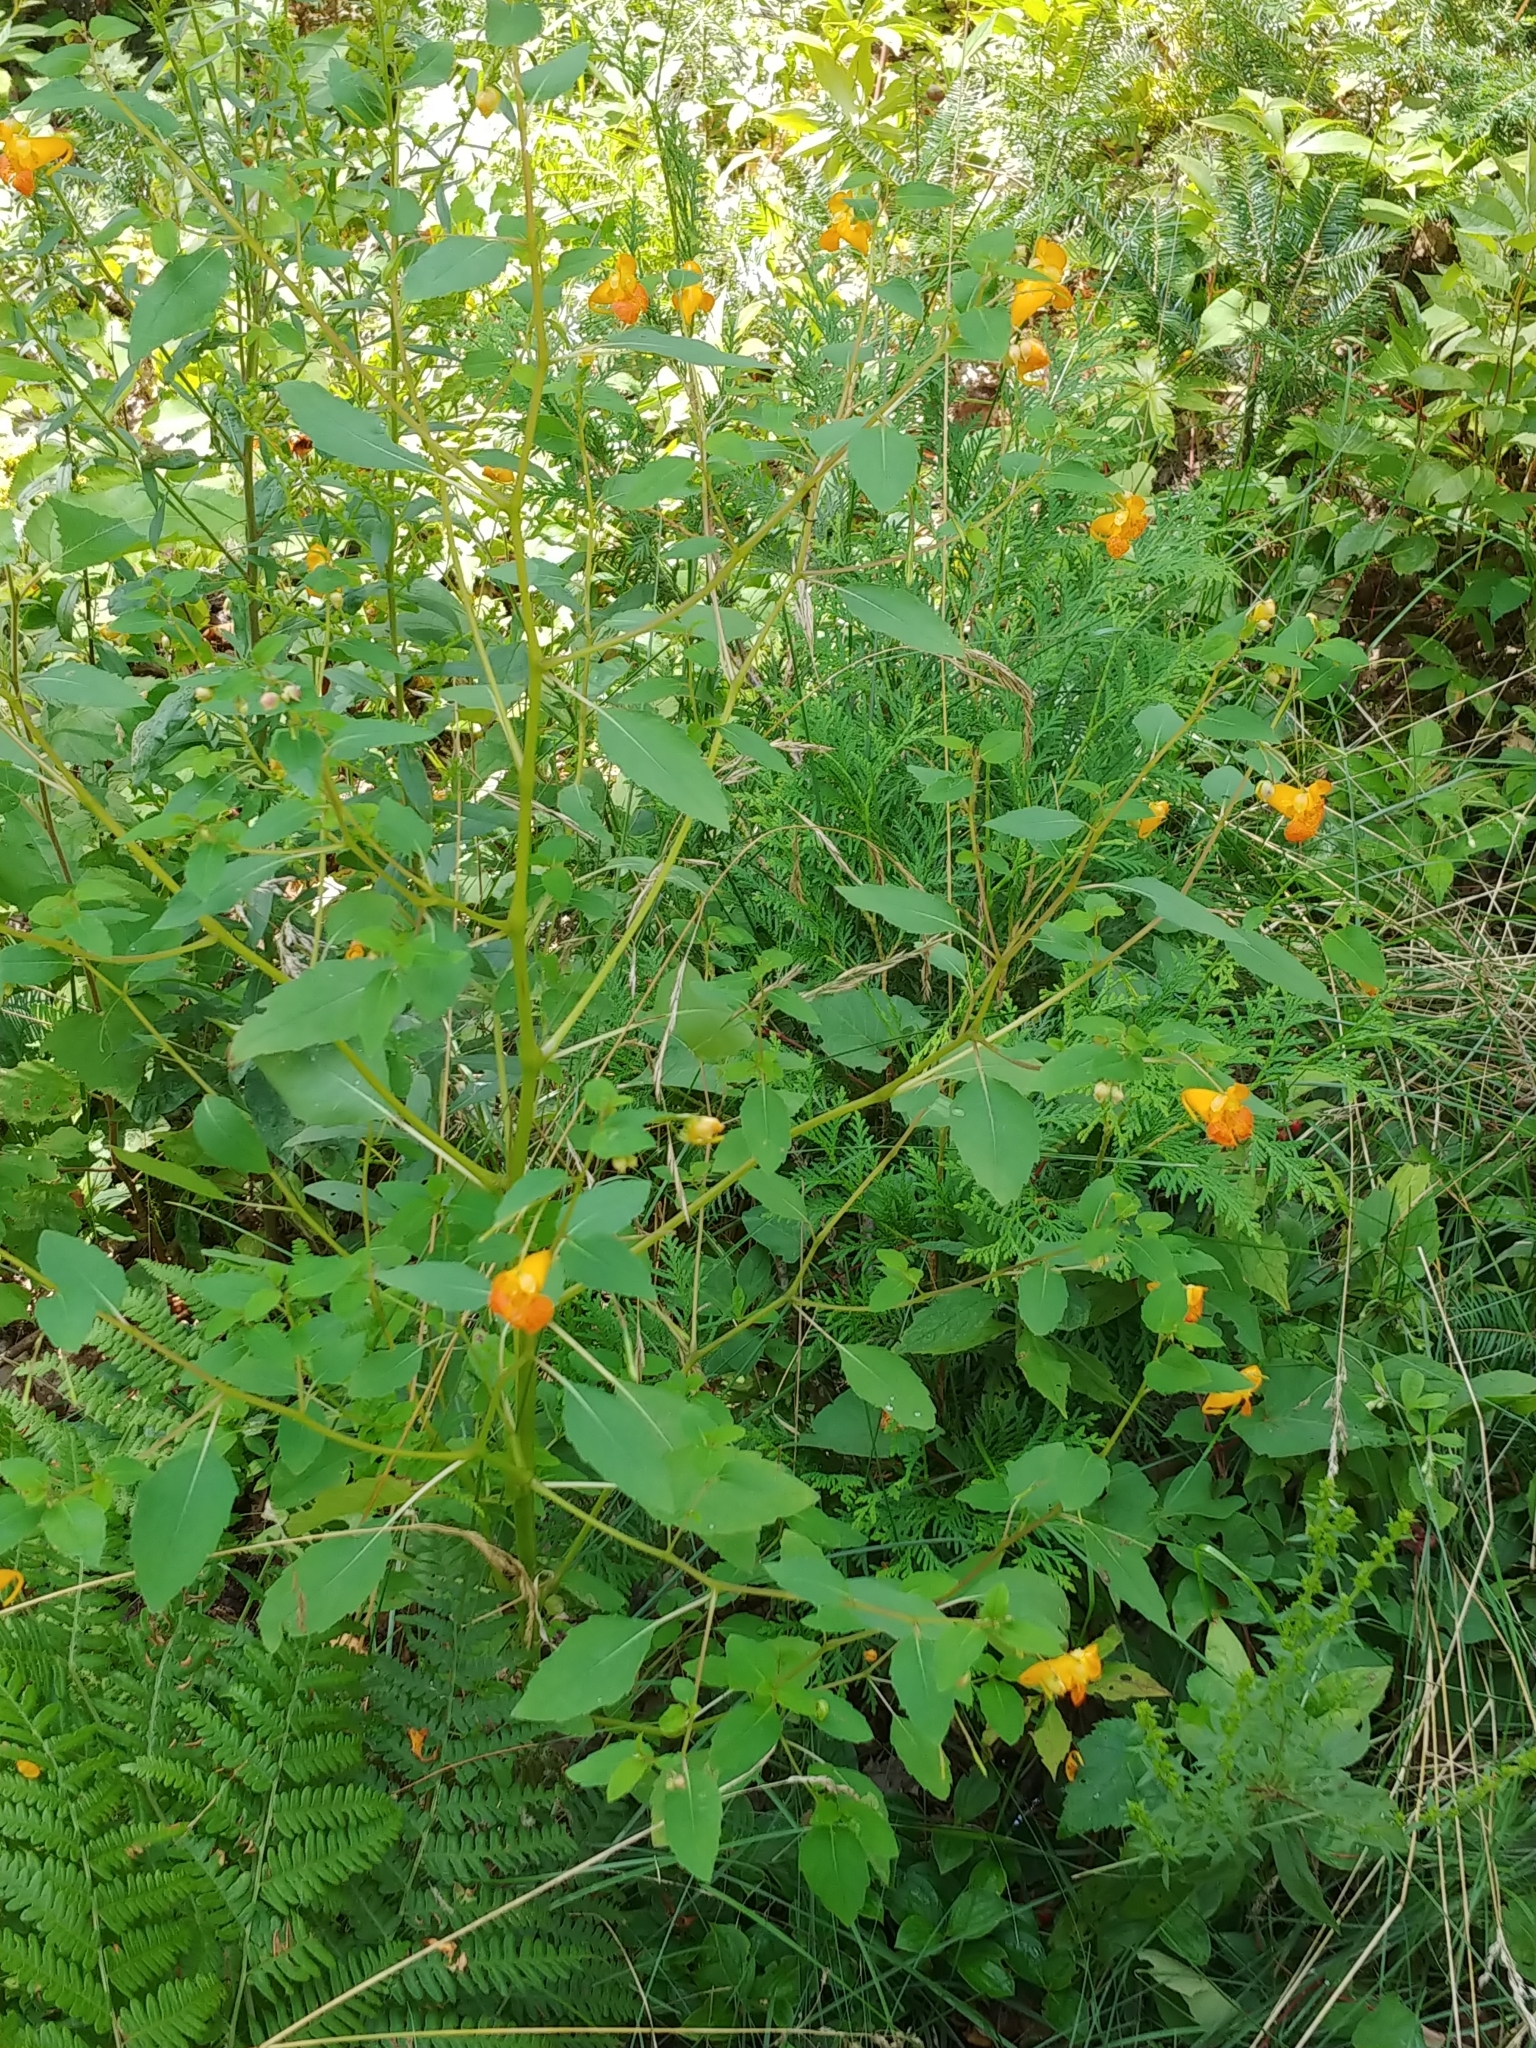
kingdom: Plantae
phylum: Tracheophyta
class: Magnoliopsida
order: Ericales
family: Balsaminaceae
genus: Impatiens
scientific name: Impatiens capensis
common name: Orange balsam
